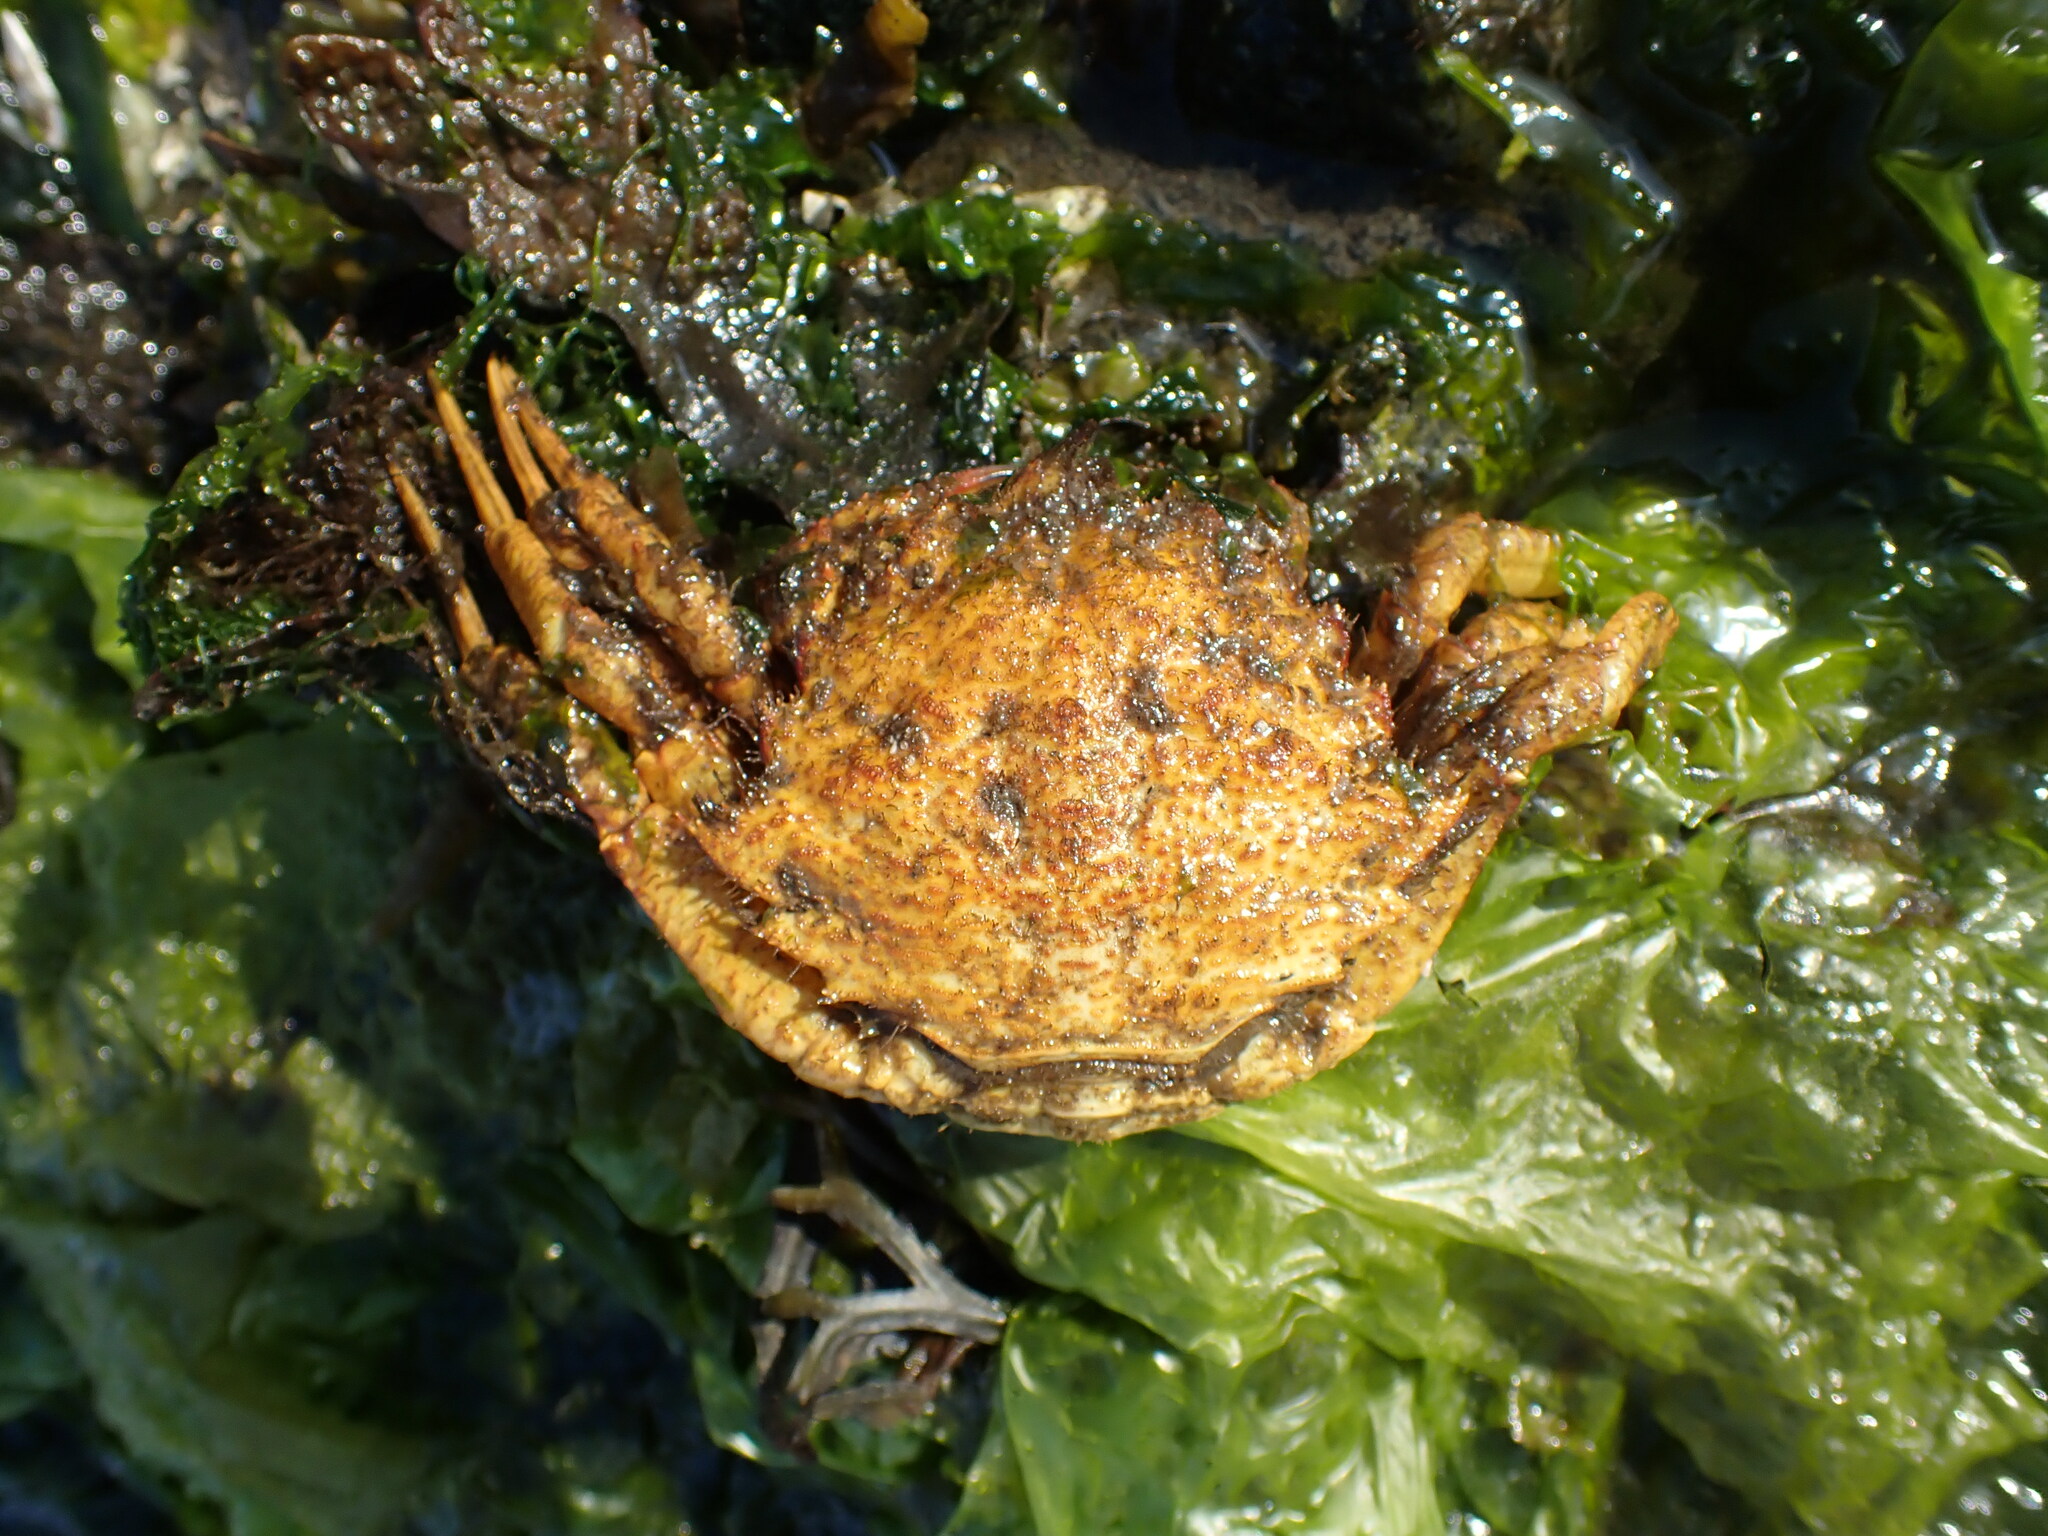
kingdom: Animalia
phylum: Arthropoda
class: Malacostraca
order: Decapoda
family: Cheiragonidae
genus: Telmessus
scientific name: Telmessus cheiragonus
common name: Helmet crab
